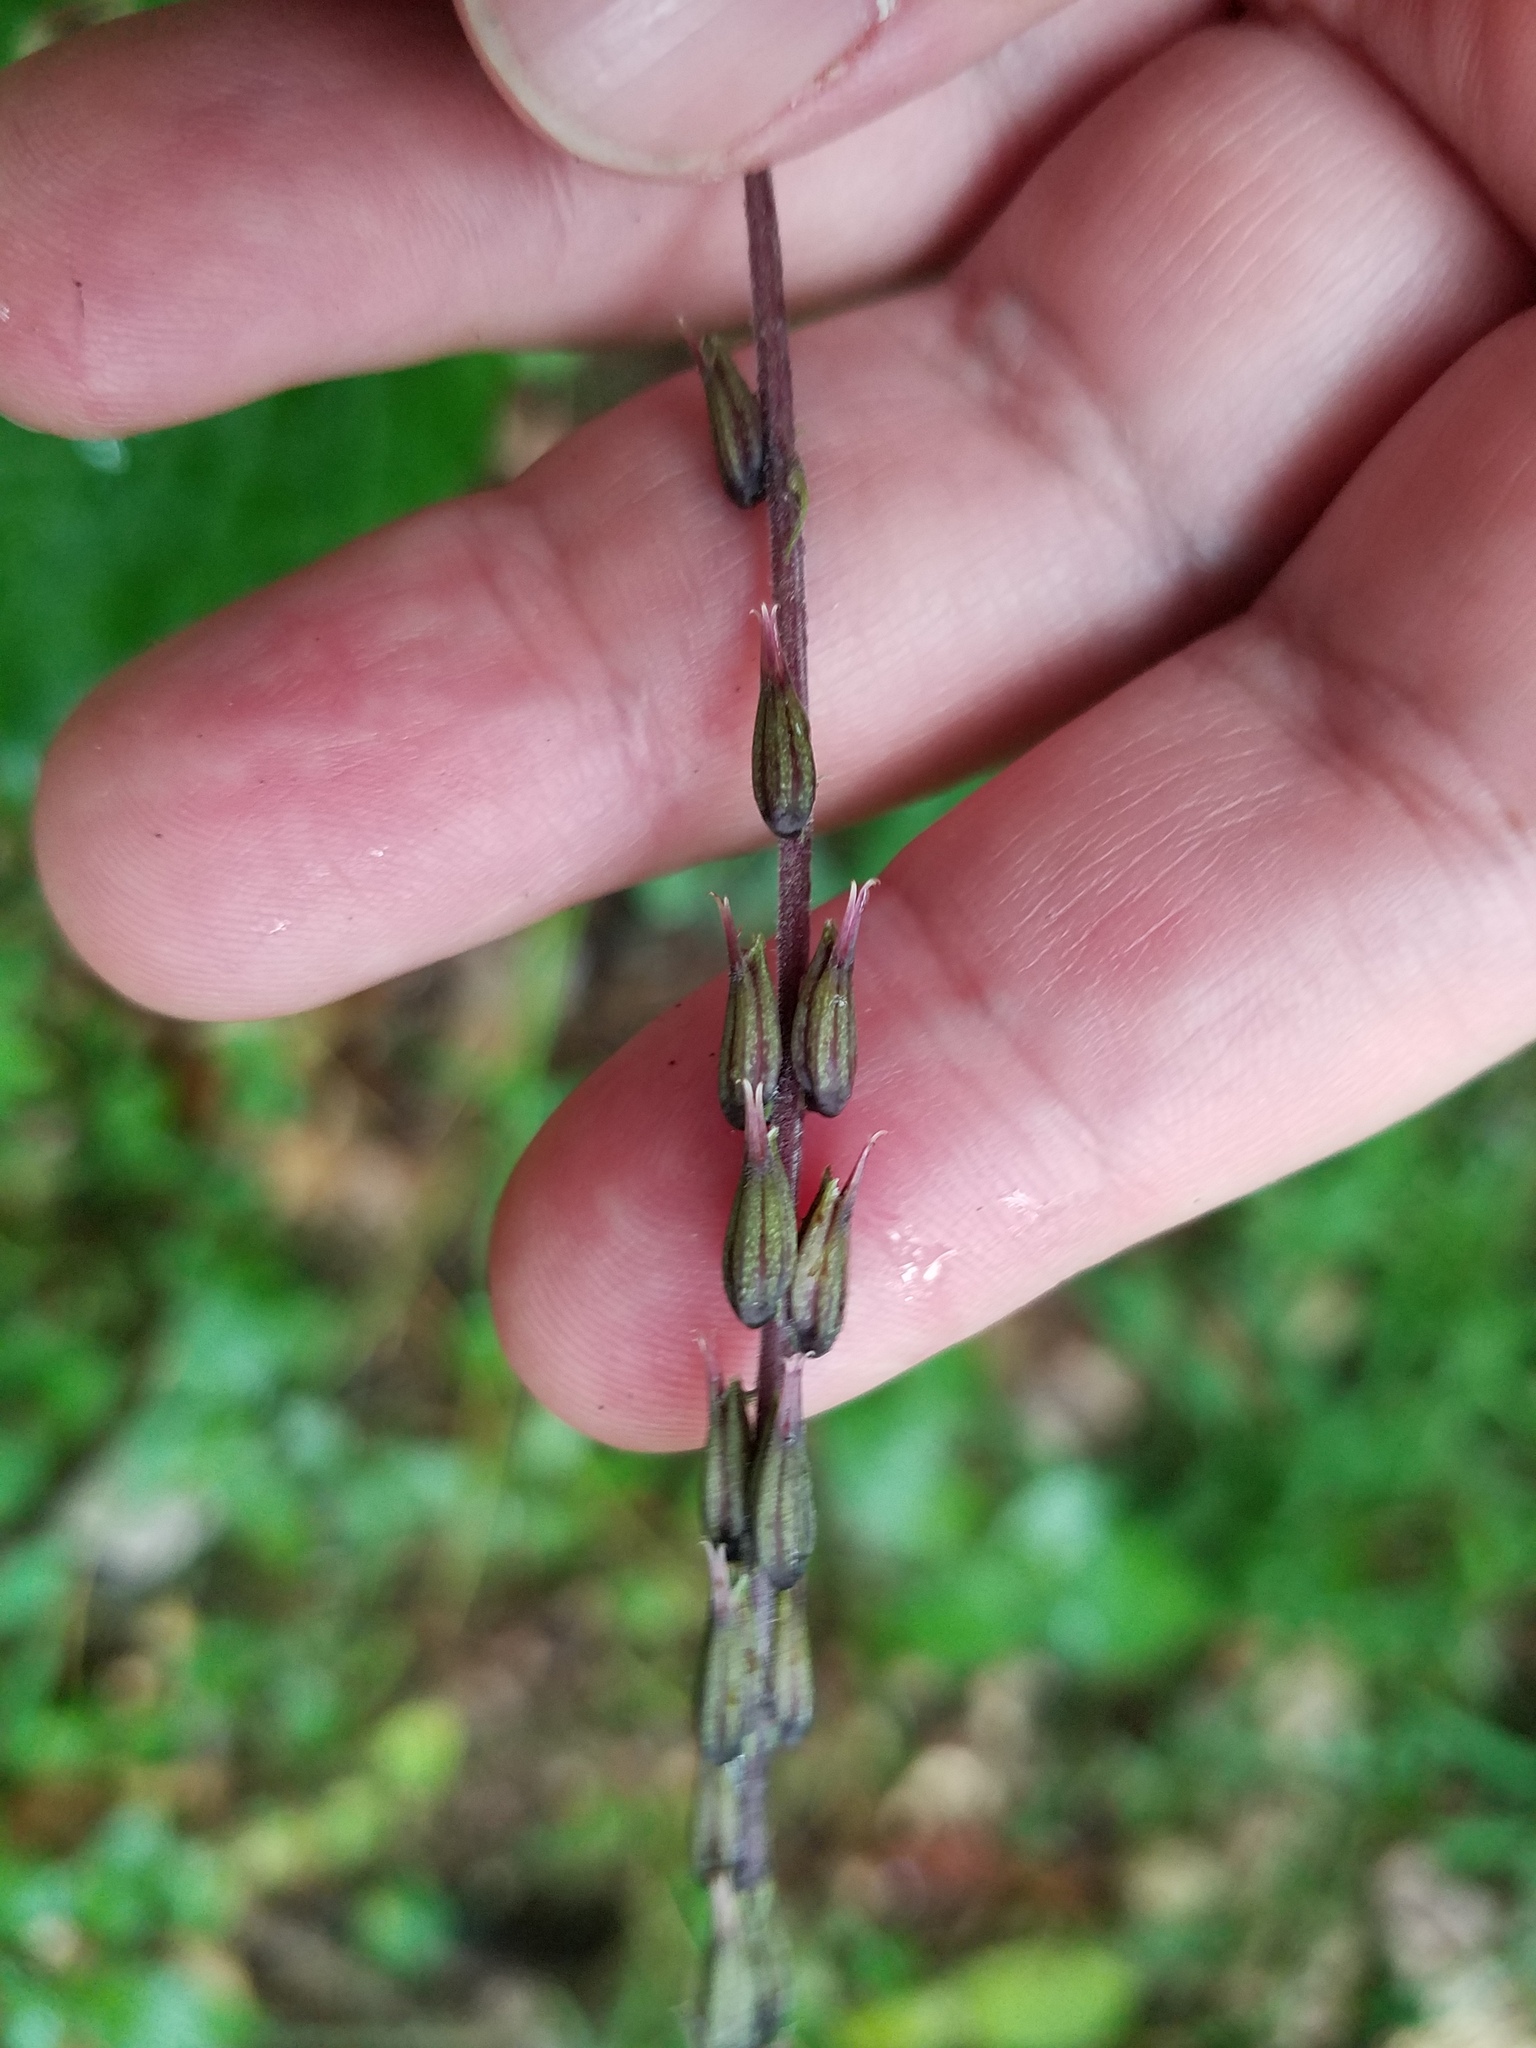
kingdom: Plantae
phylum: Tracheophyta
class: Magnoliopsida
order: Lamiales
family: Phrymaceae
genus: Phryma
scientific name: Phryma leptostachya
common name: American lopseed
